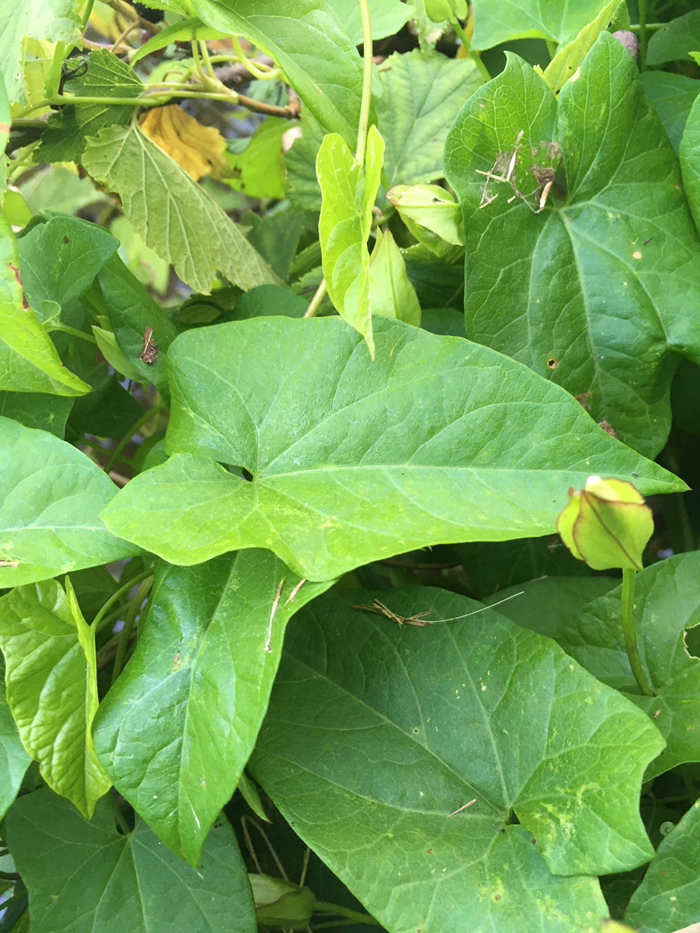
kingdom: Plantae
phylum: Tracheophyta
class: Magnoliopsida
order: Solanales
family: Convolvulaceae
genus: Calystegia
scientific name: Calystegia sepium
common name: Hedge bindweed
